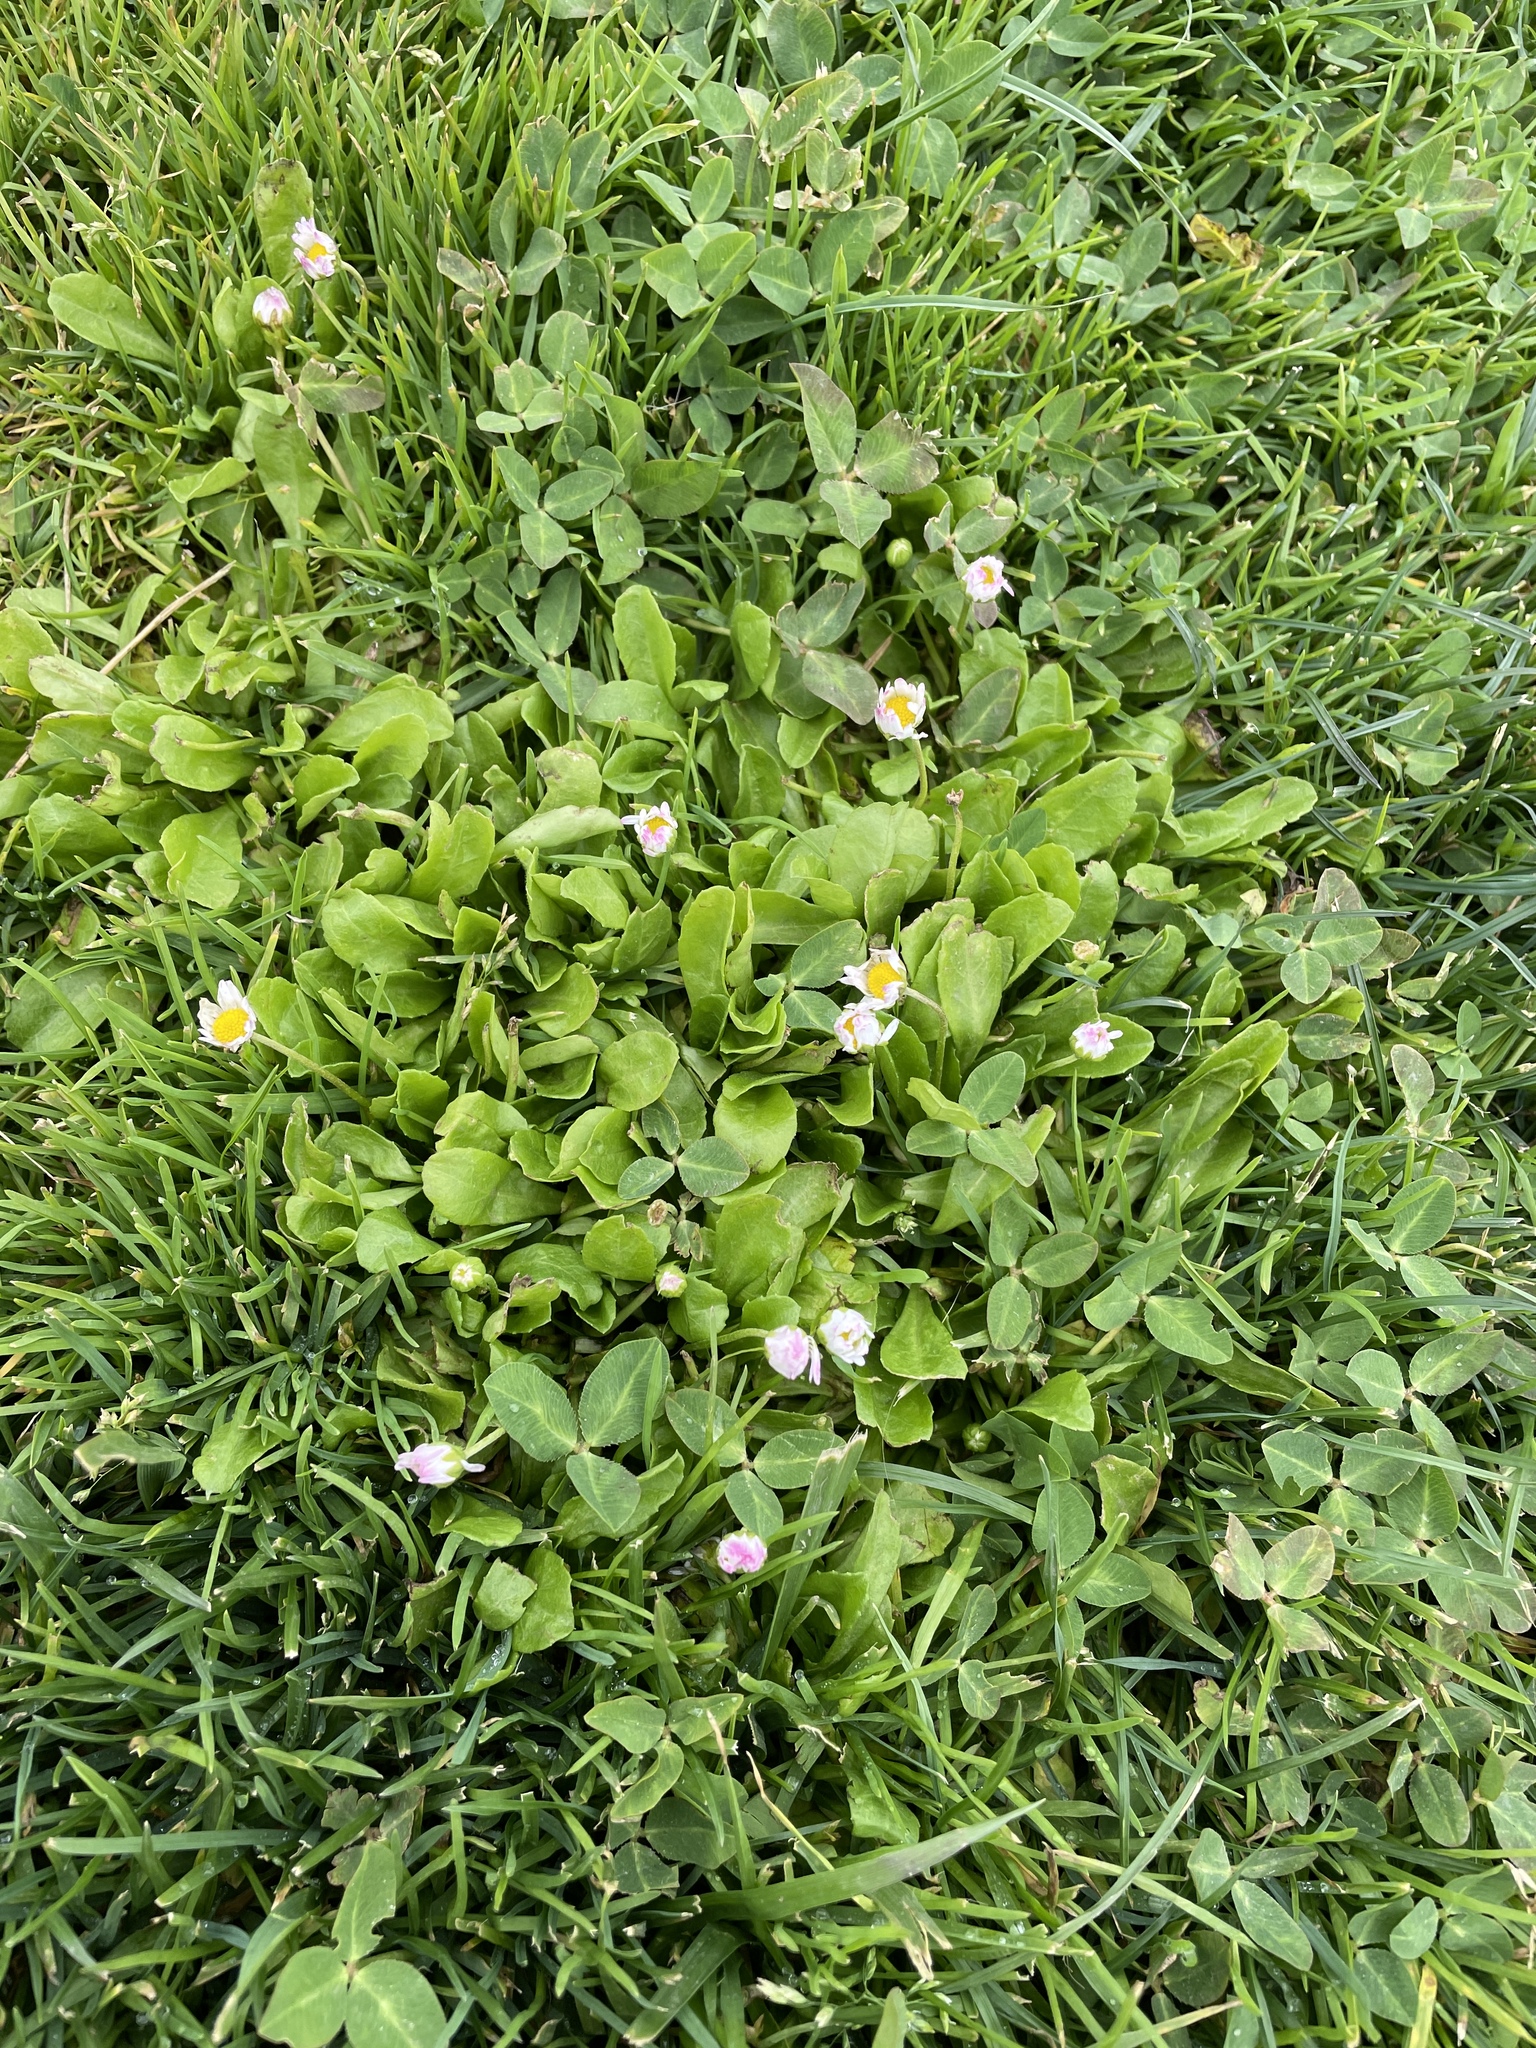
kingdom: Plantae
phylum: Tracheophyta
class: Magnoliopsida
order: Asterales
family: Asteraceae
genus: Bellis
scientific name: Bellis perennis
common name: Lawndaisy
